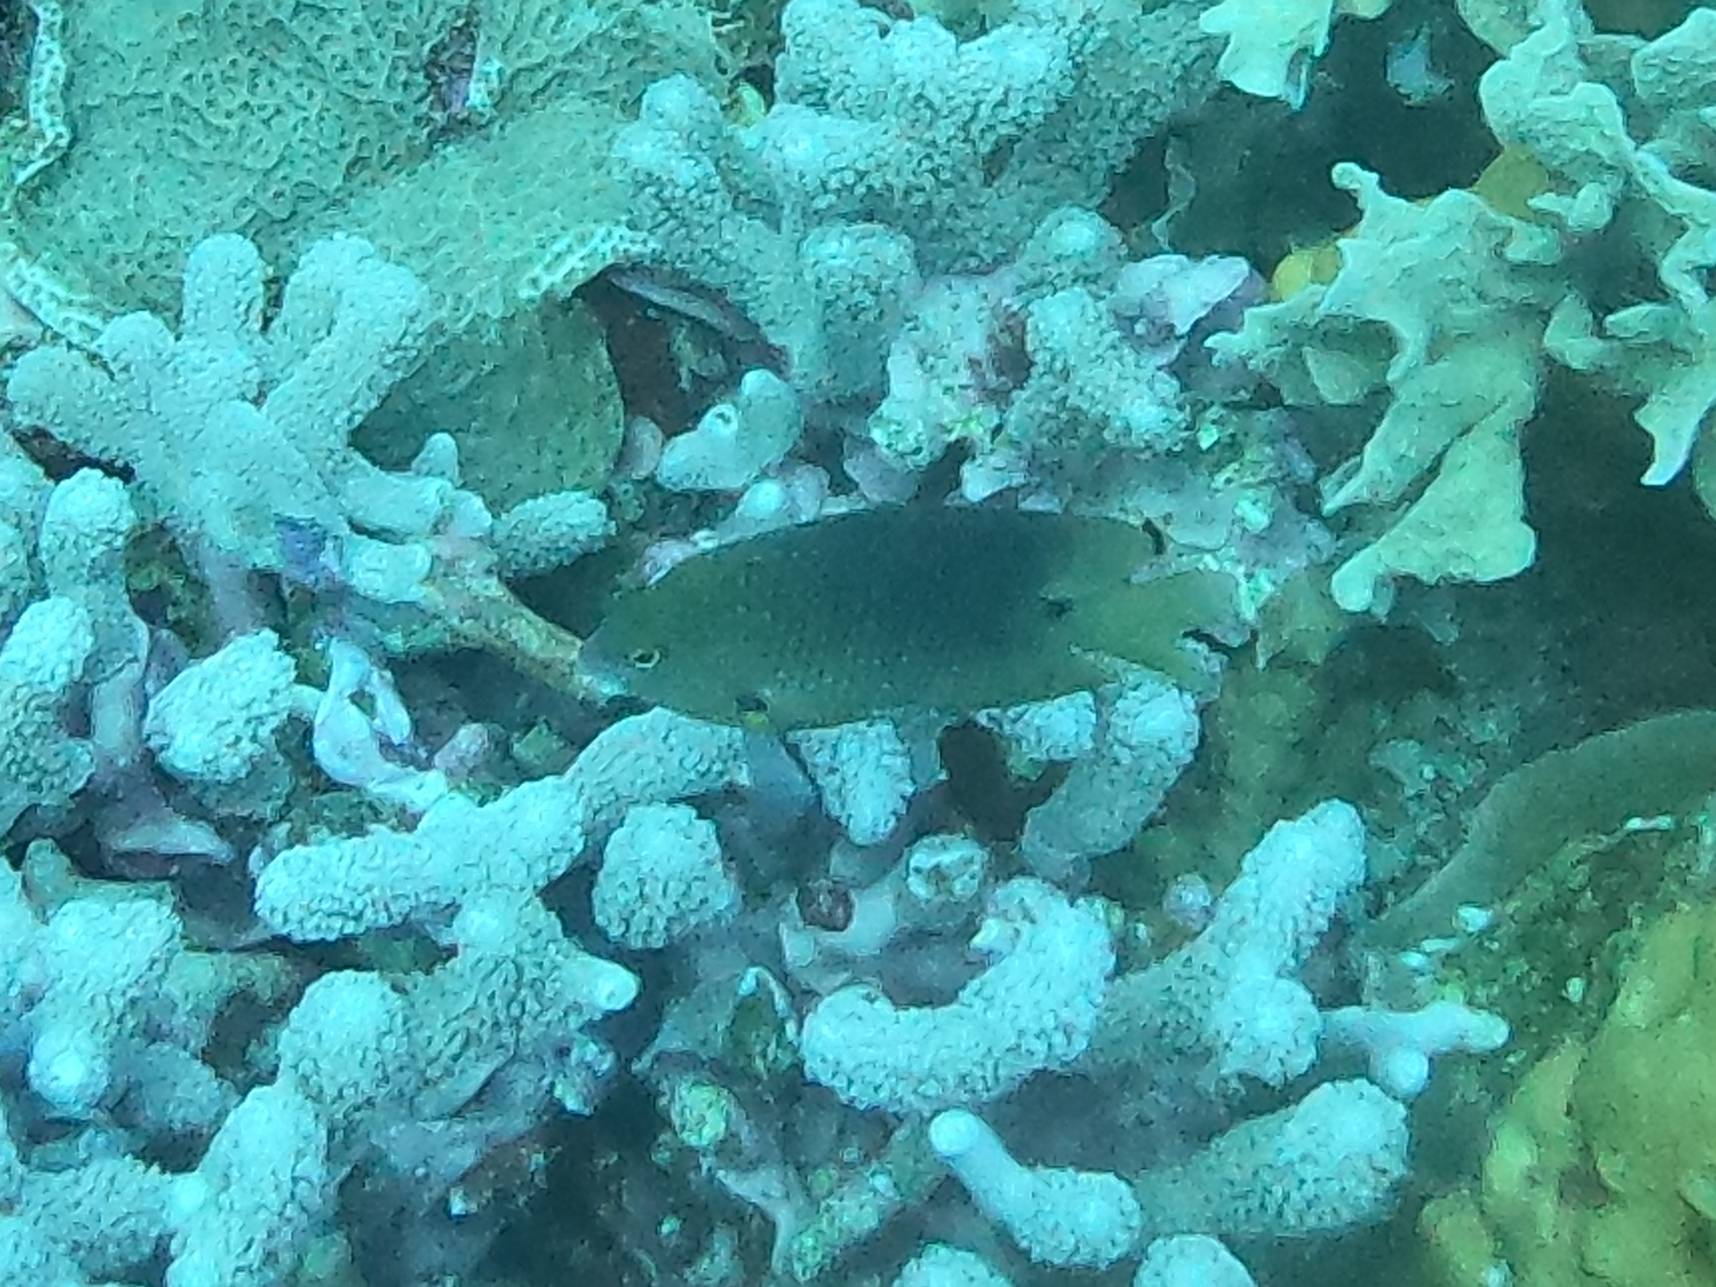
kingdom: Animalia
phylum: Chordata
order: Perciformes
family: Pomacentridae
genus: Stegastes
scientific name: Stegastes planifrons
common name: Threespot damselfish
